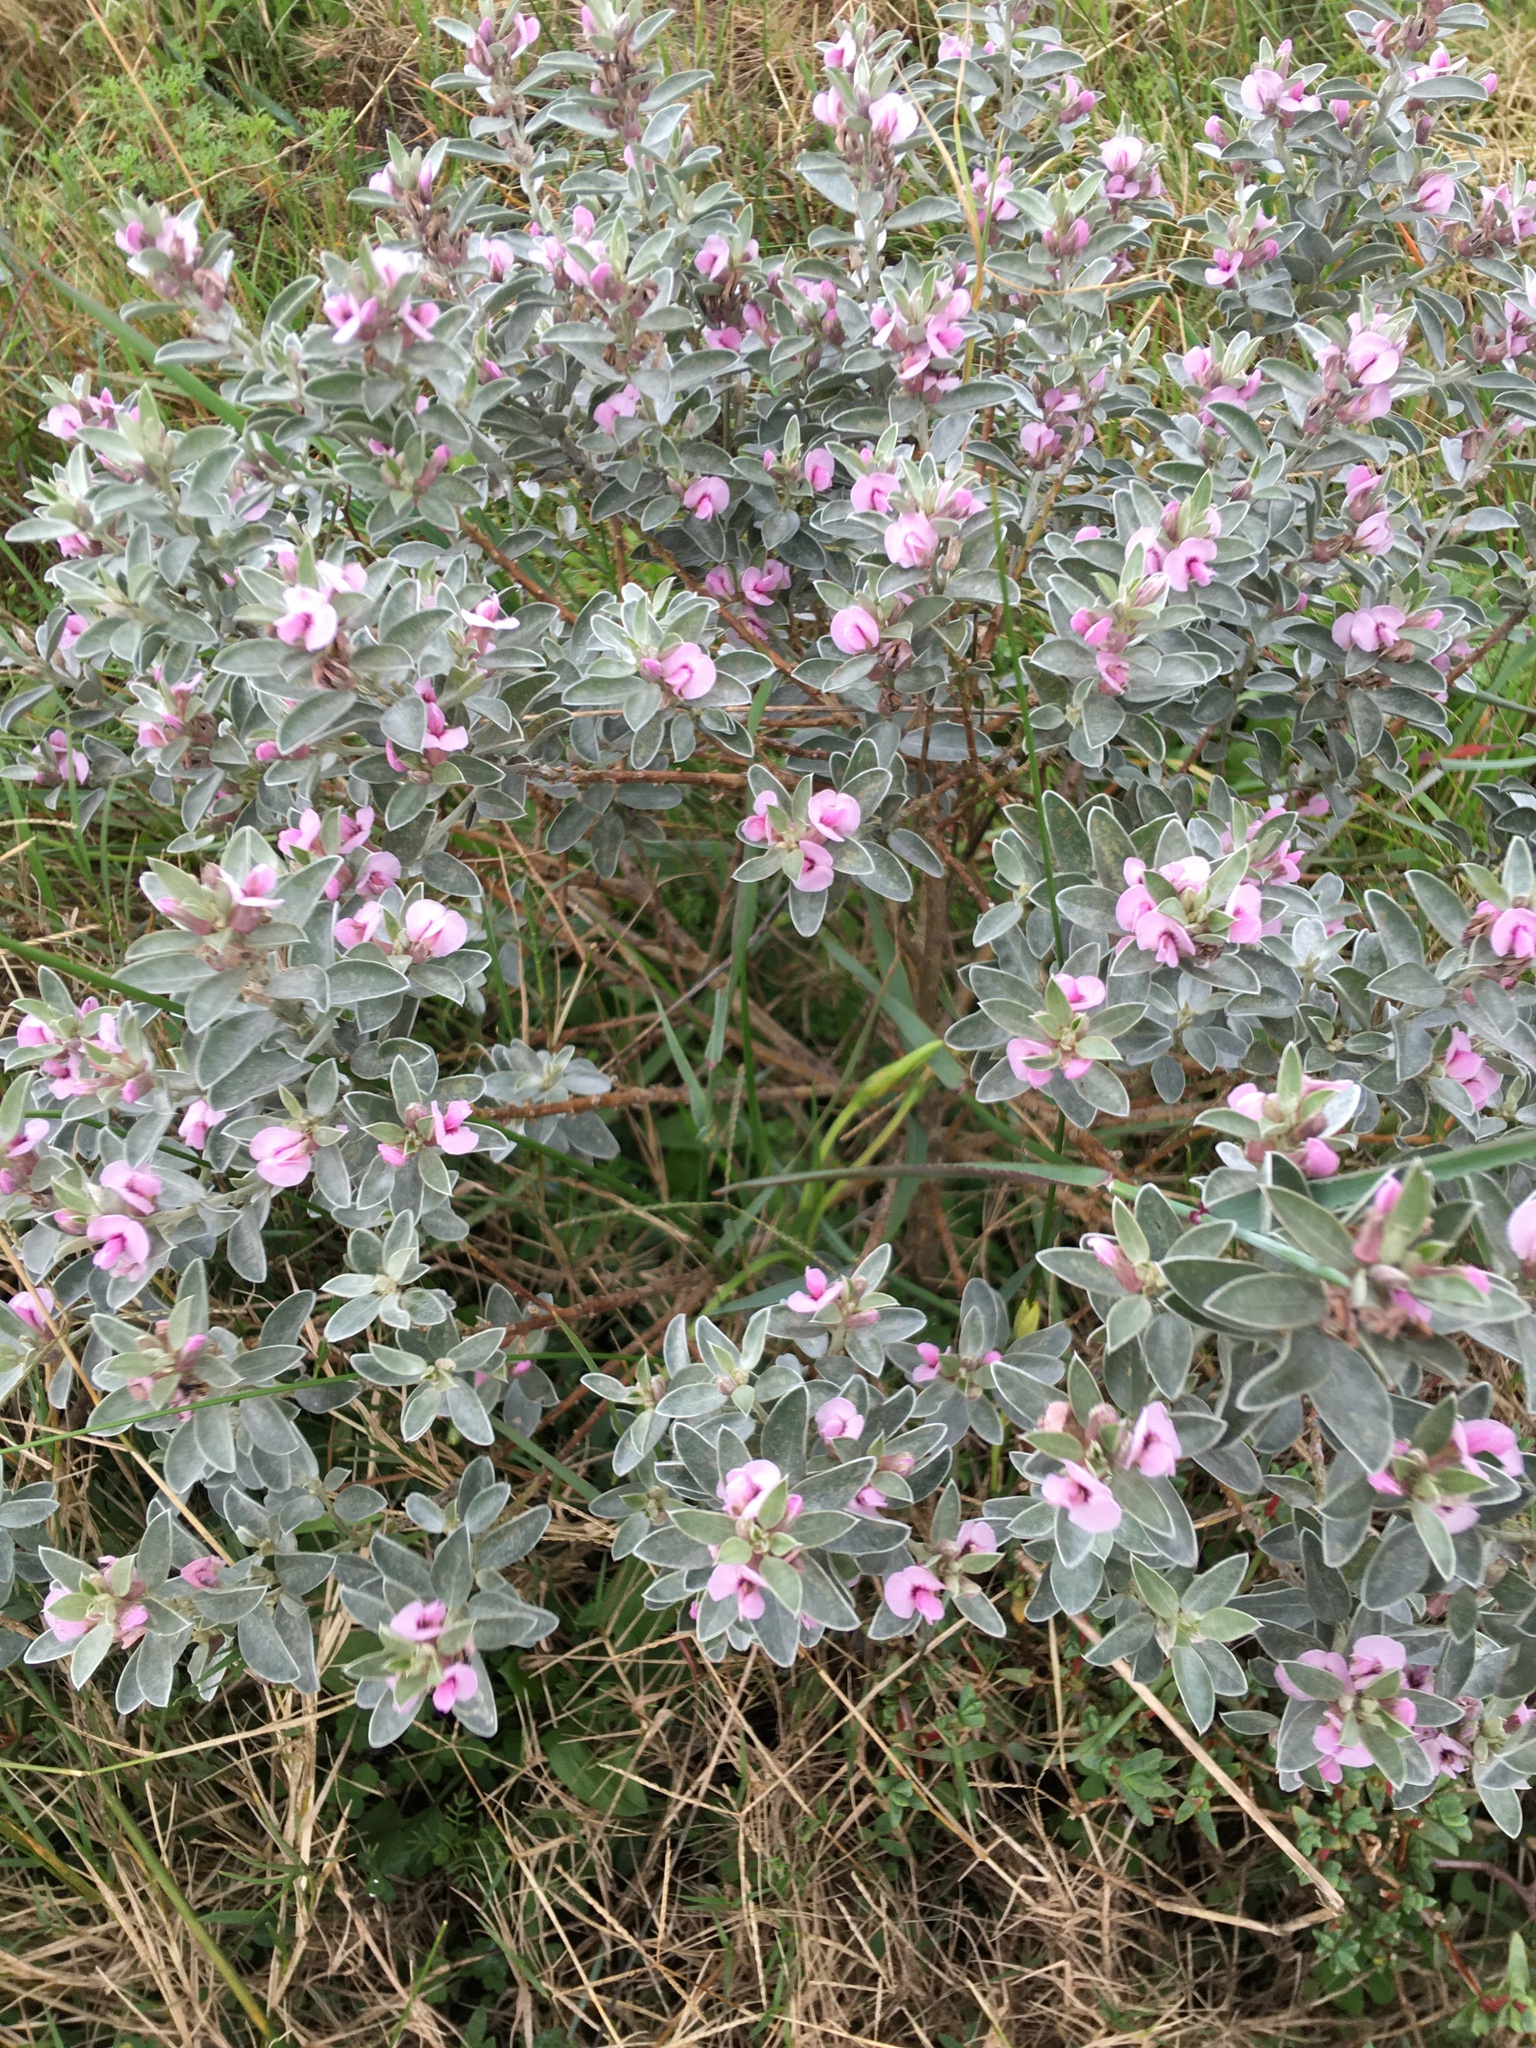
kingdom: Plantae
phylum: Tracheophyta
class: Magnoliopsida
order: Fabales
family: Fabaceae
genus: Podalyria
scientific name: Podalyria sericea
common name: Silver podalyria
